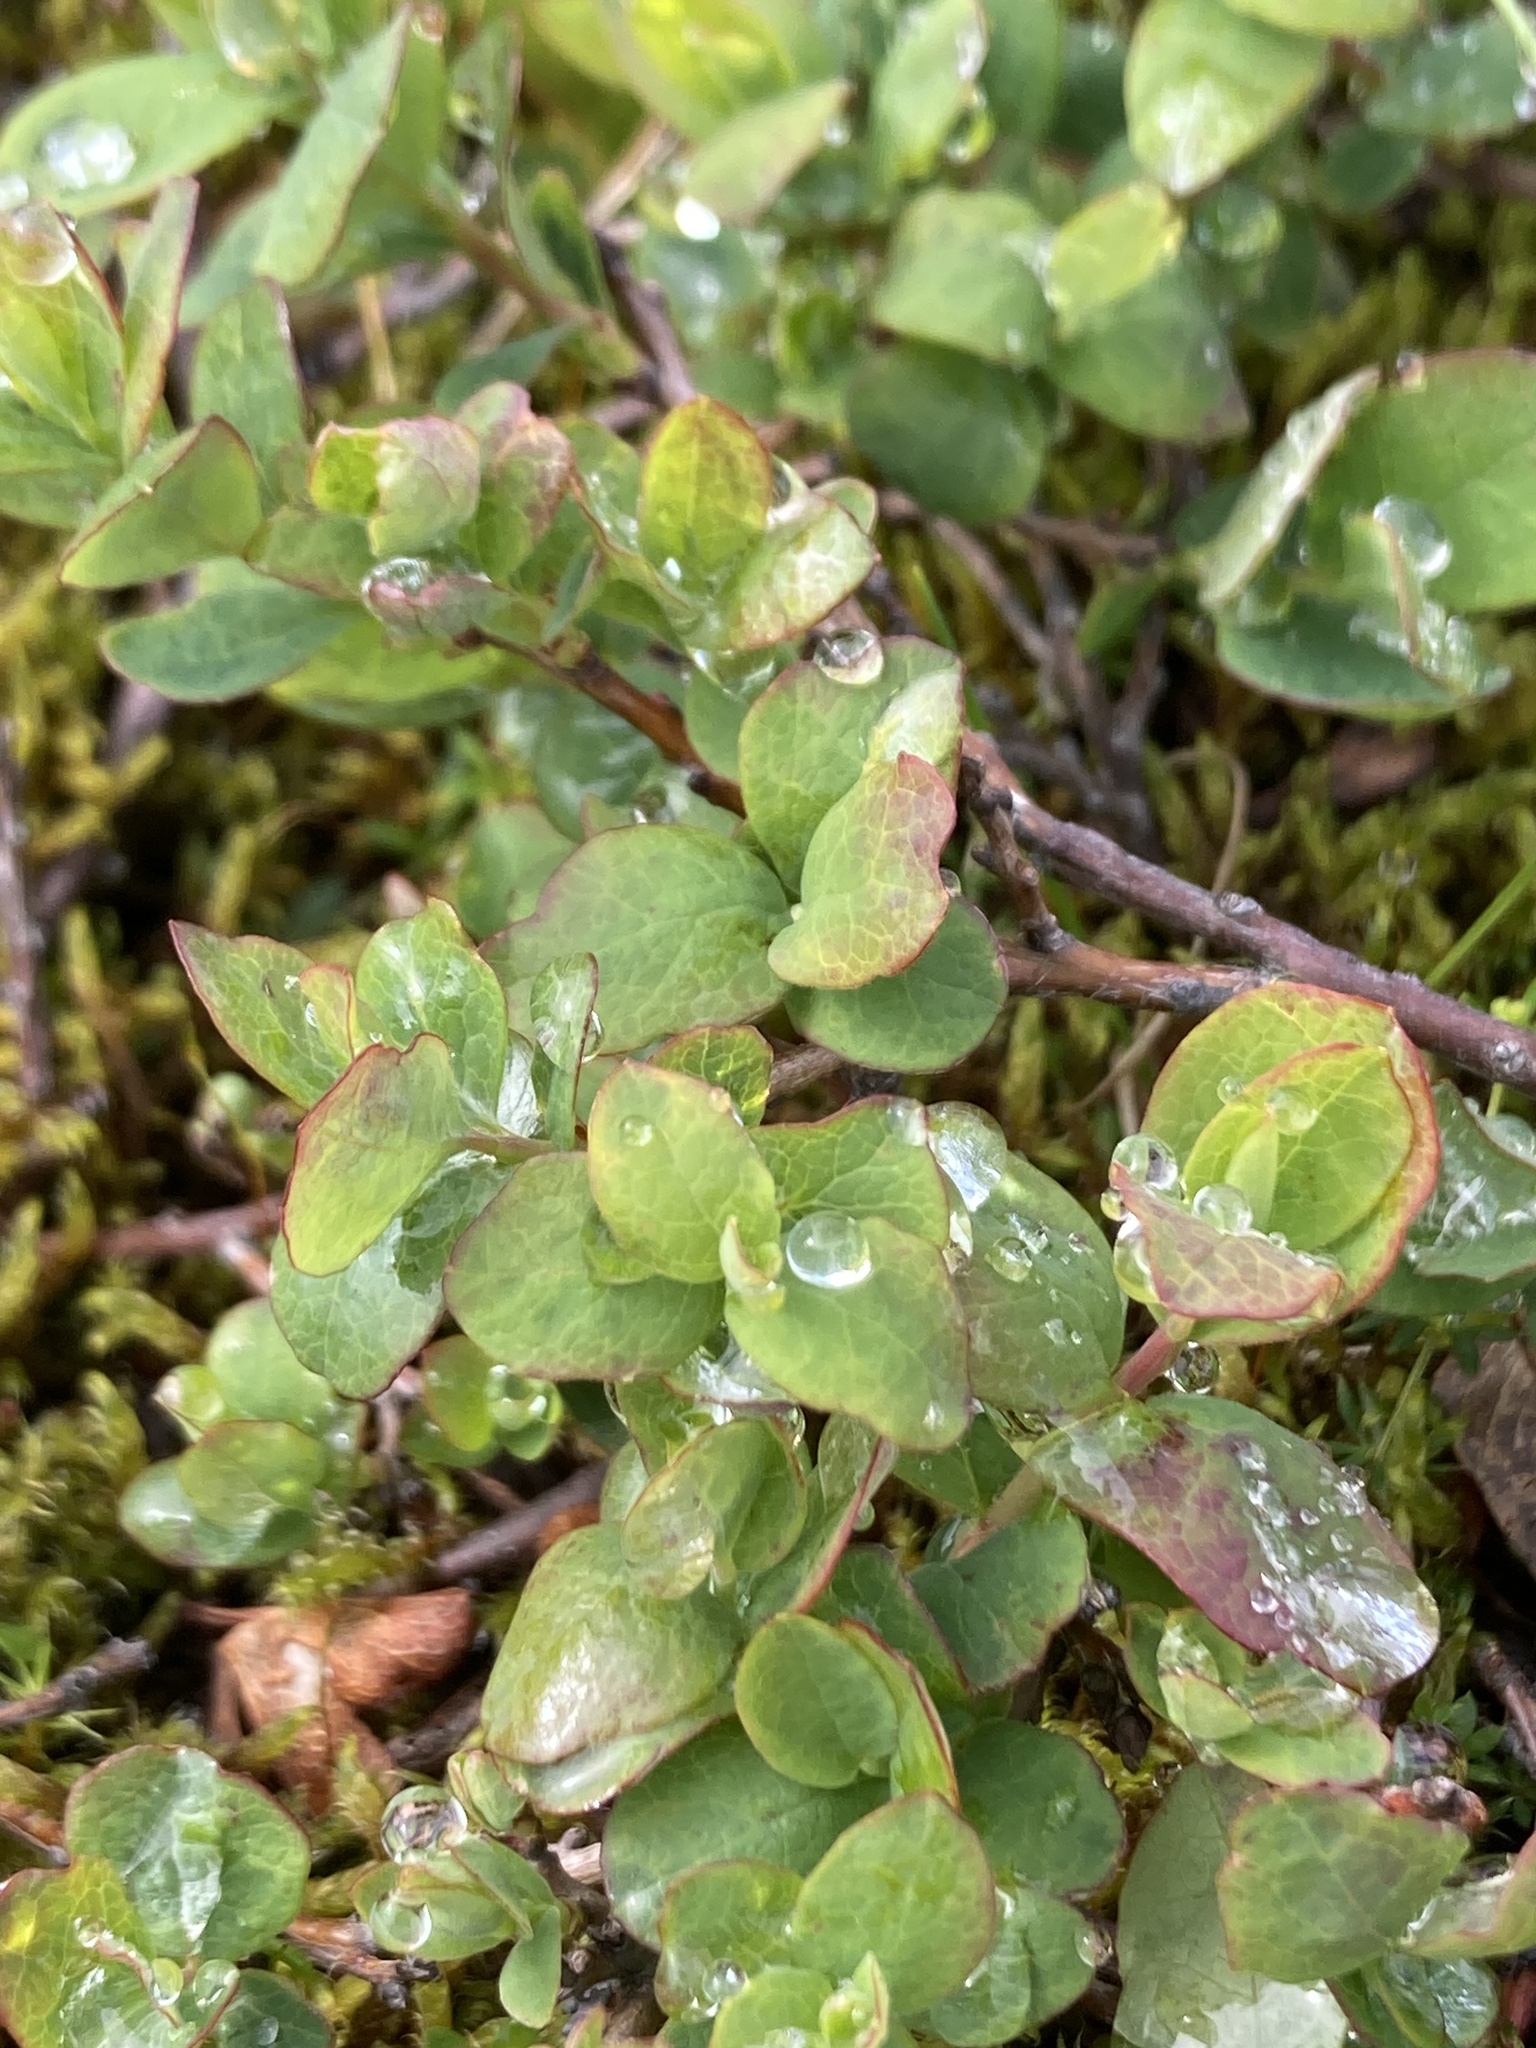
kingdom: Plantae
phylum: Tracheophyta
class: Magnoliopsida
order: Ericales
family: Ericaceae
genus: Vaccinium
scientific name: Vaccinium uliginosum
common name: Bog bilberry
